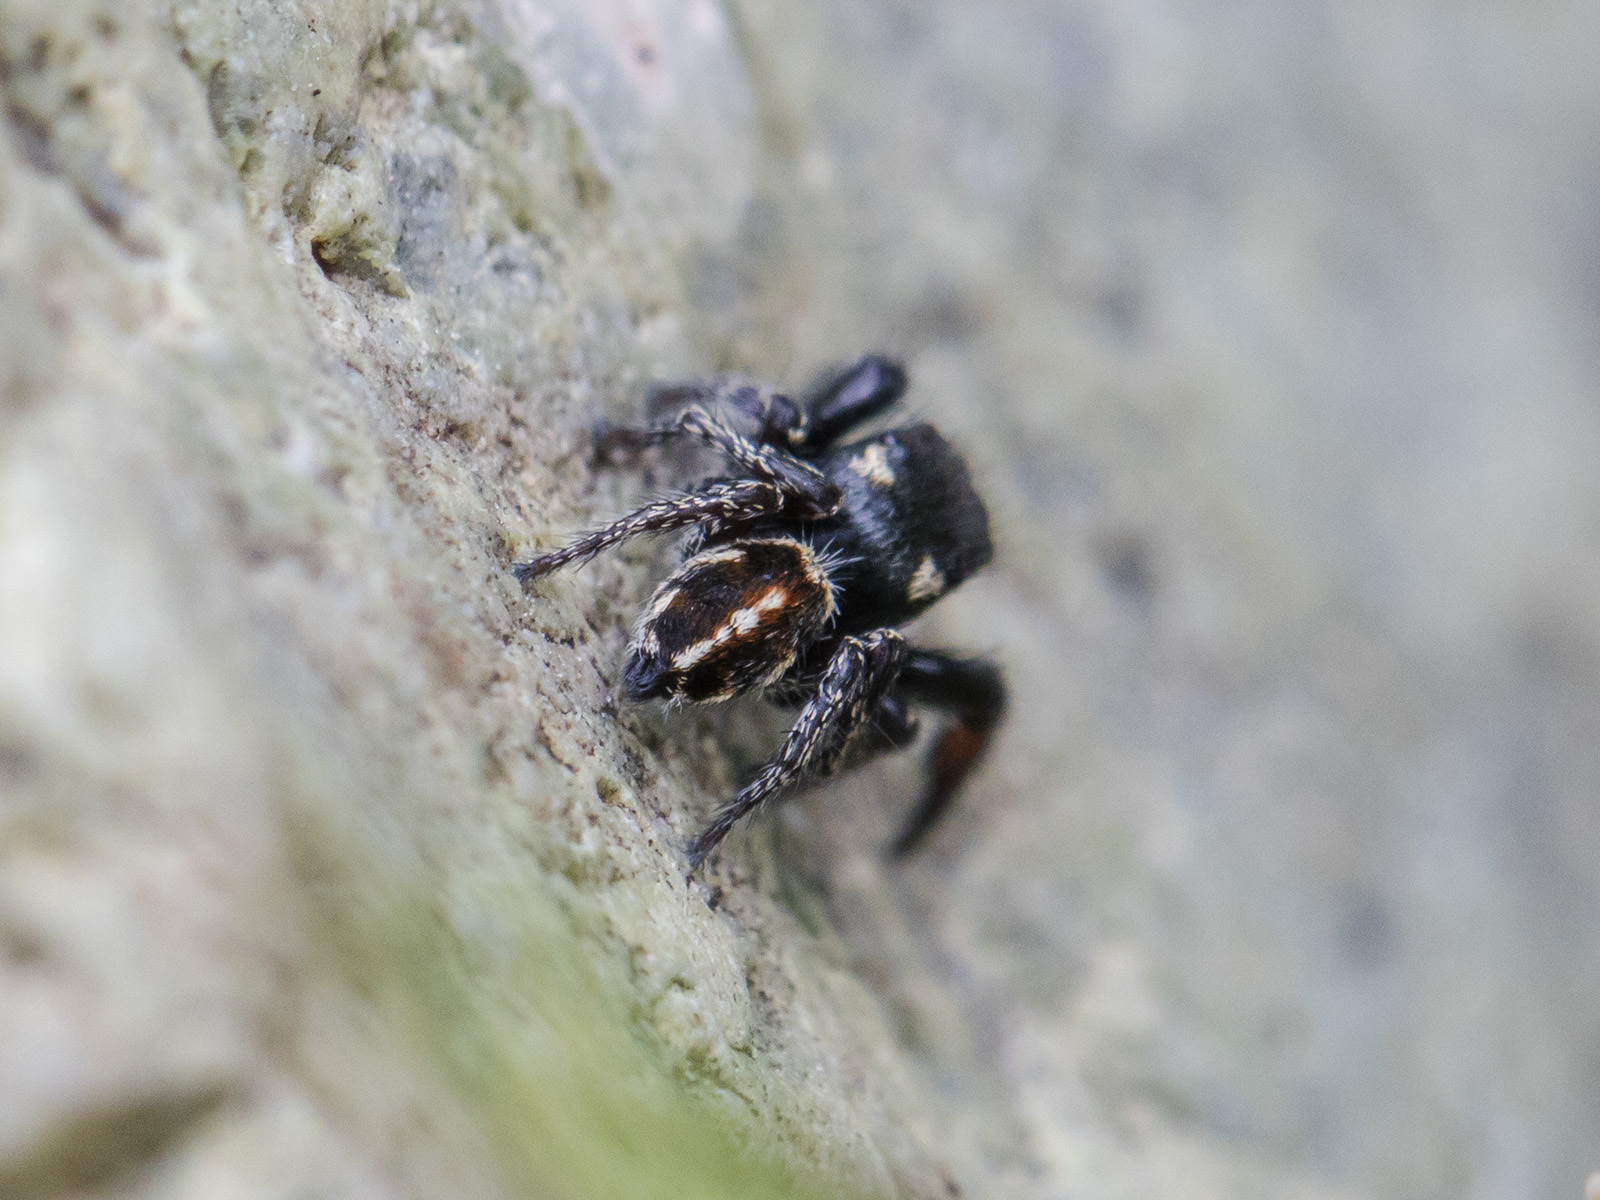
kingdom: Animalia
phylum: Arthropoda
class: Arachnida
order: Araneae
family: Salticidae
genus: Pellenes
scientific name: Pellenes allegrii
